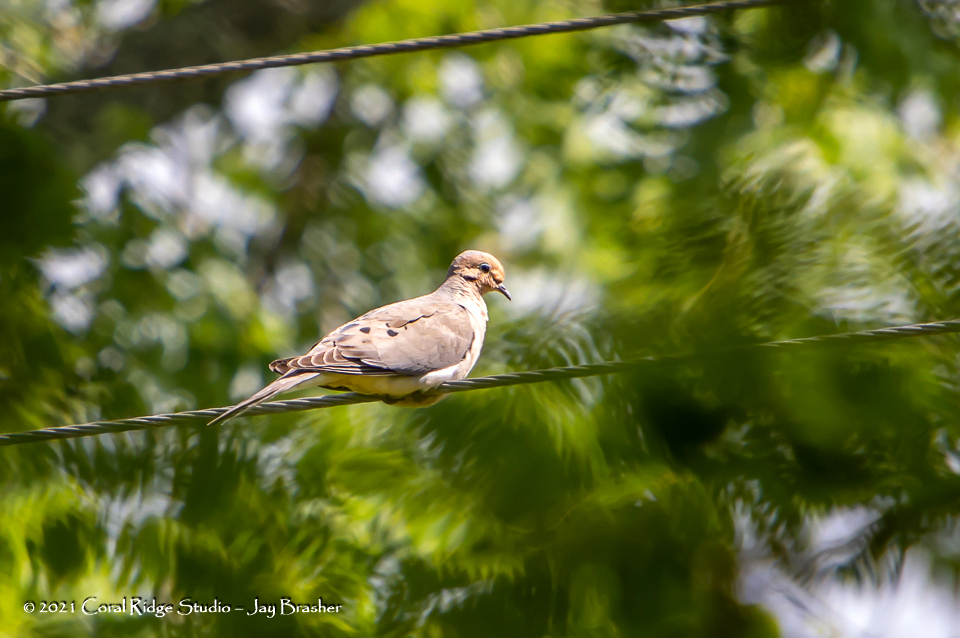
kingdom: Animalia
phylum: Chordata
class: Aves
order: Columbiformes
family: Columbidae
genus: Zenaida
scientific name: Zenaida macroura
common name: Mourning dove
